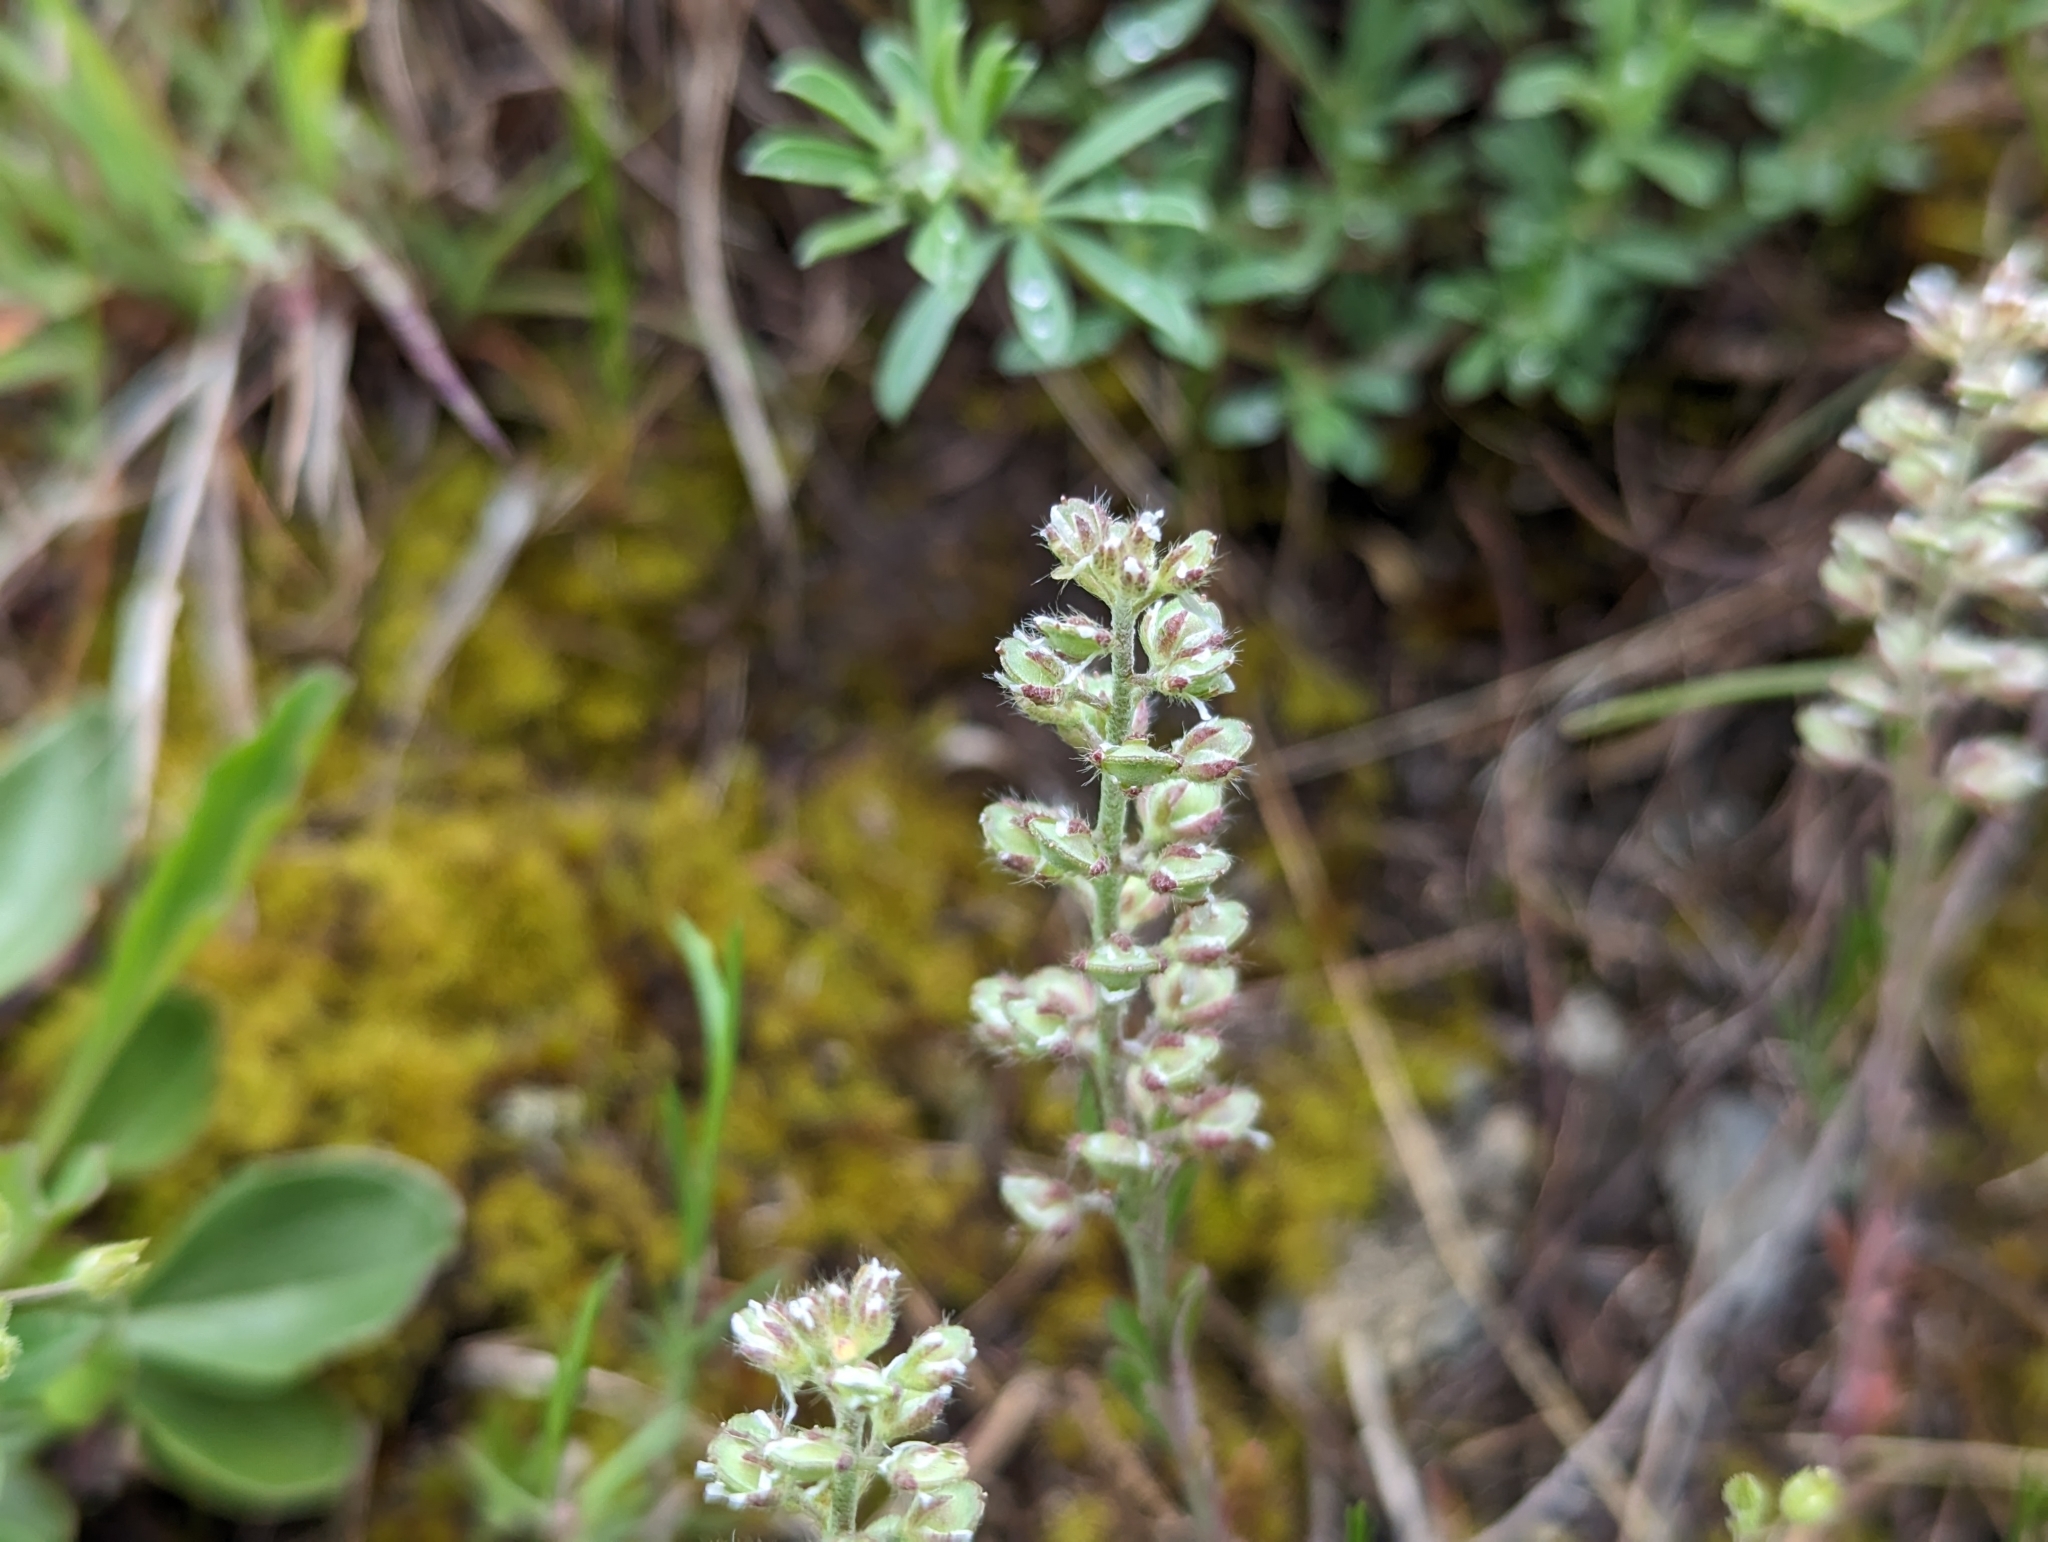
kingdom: Plantae
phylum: Tracheophyta
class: Magnoliopsida
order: Brassicales
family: Brassicaceae
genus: Alyssum
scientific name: Alyssum alyssoides
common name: Small alison
